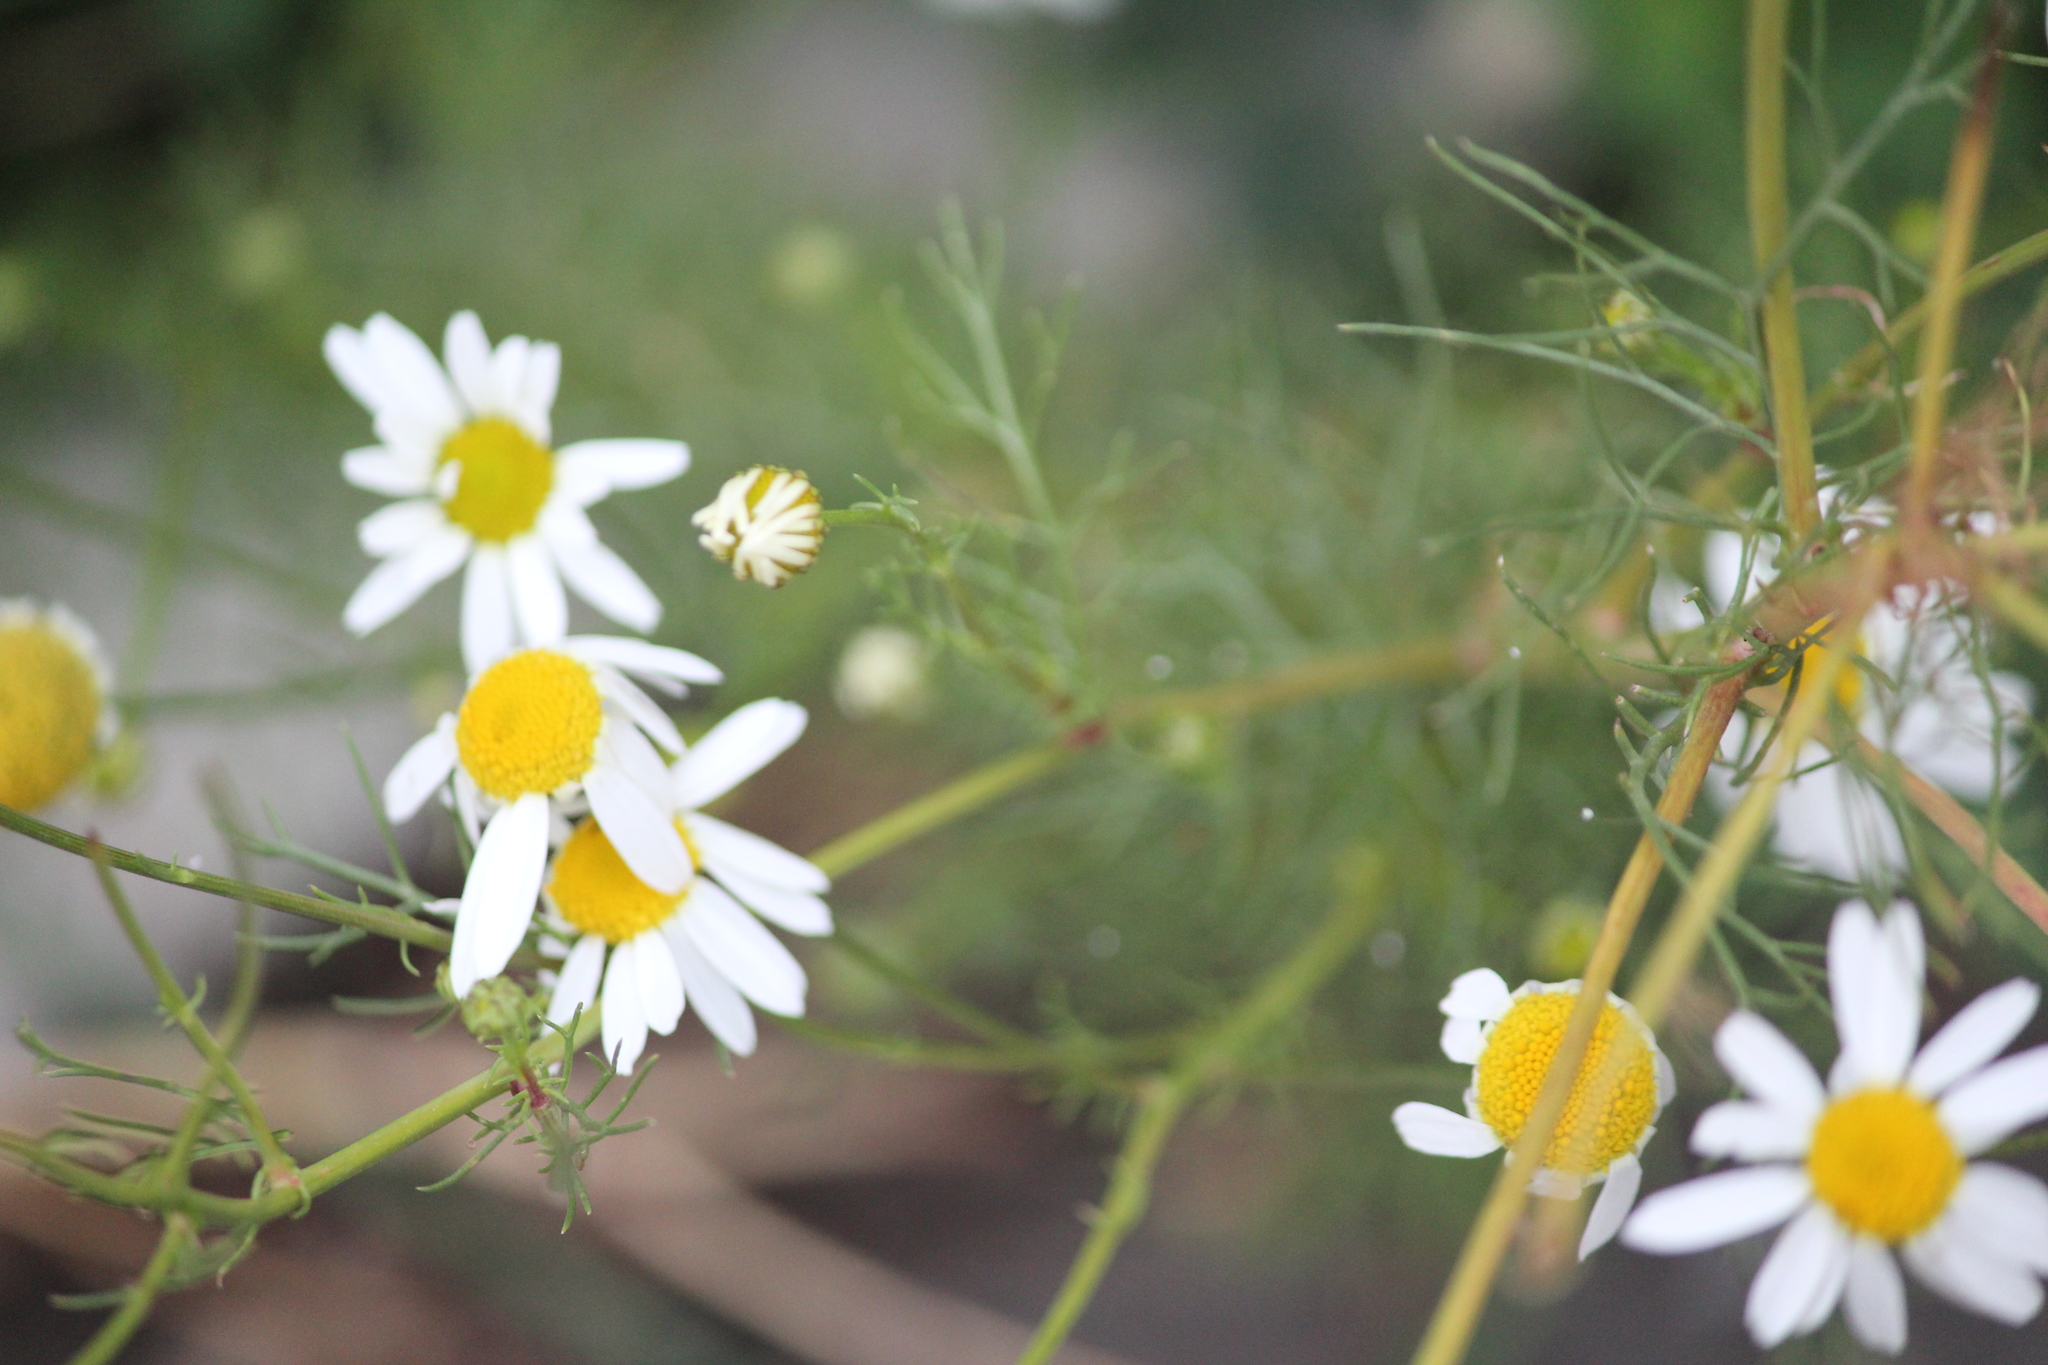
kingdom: Plantae
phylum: Tracheophyta
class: Magnoliopsida
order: Asterales
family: Asteraceae
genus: Tripleurospermum
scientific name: Tripleurospermum inodorum
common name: Scentless mayweed
